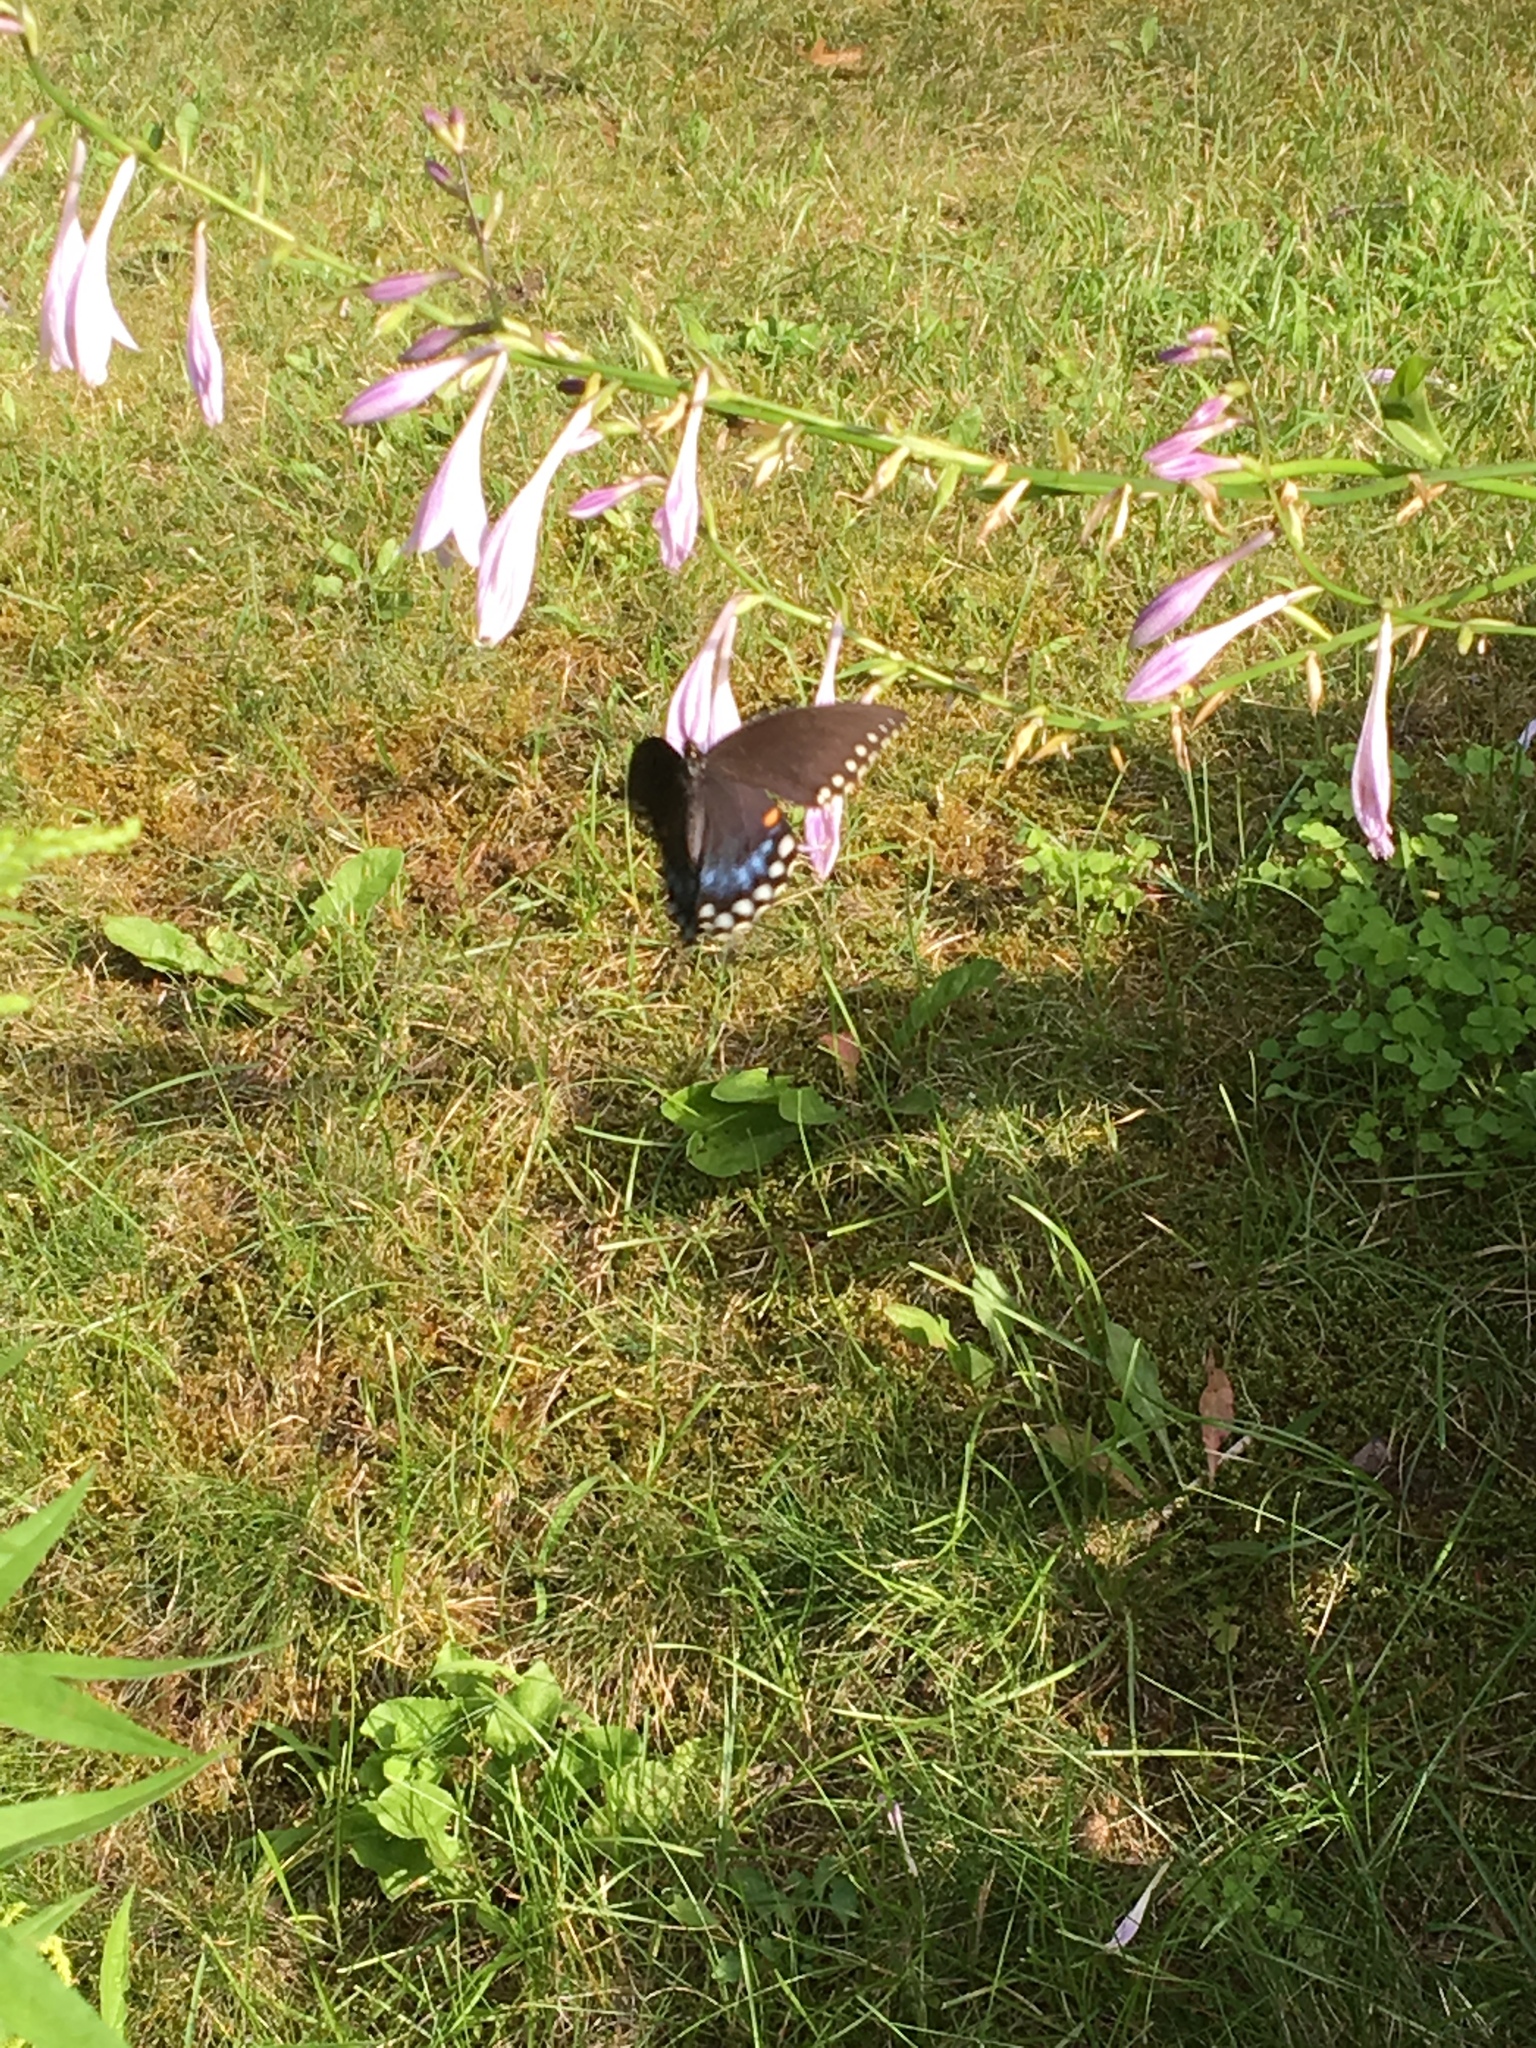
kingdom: Animalia
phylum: Arthropoda
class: Insecta
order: Lepidoptera
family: Papilionidae
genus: Papilio
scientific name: Papilio troilus
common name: Spicebush swallowtail
